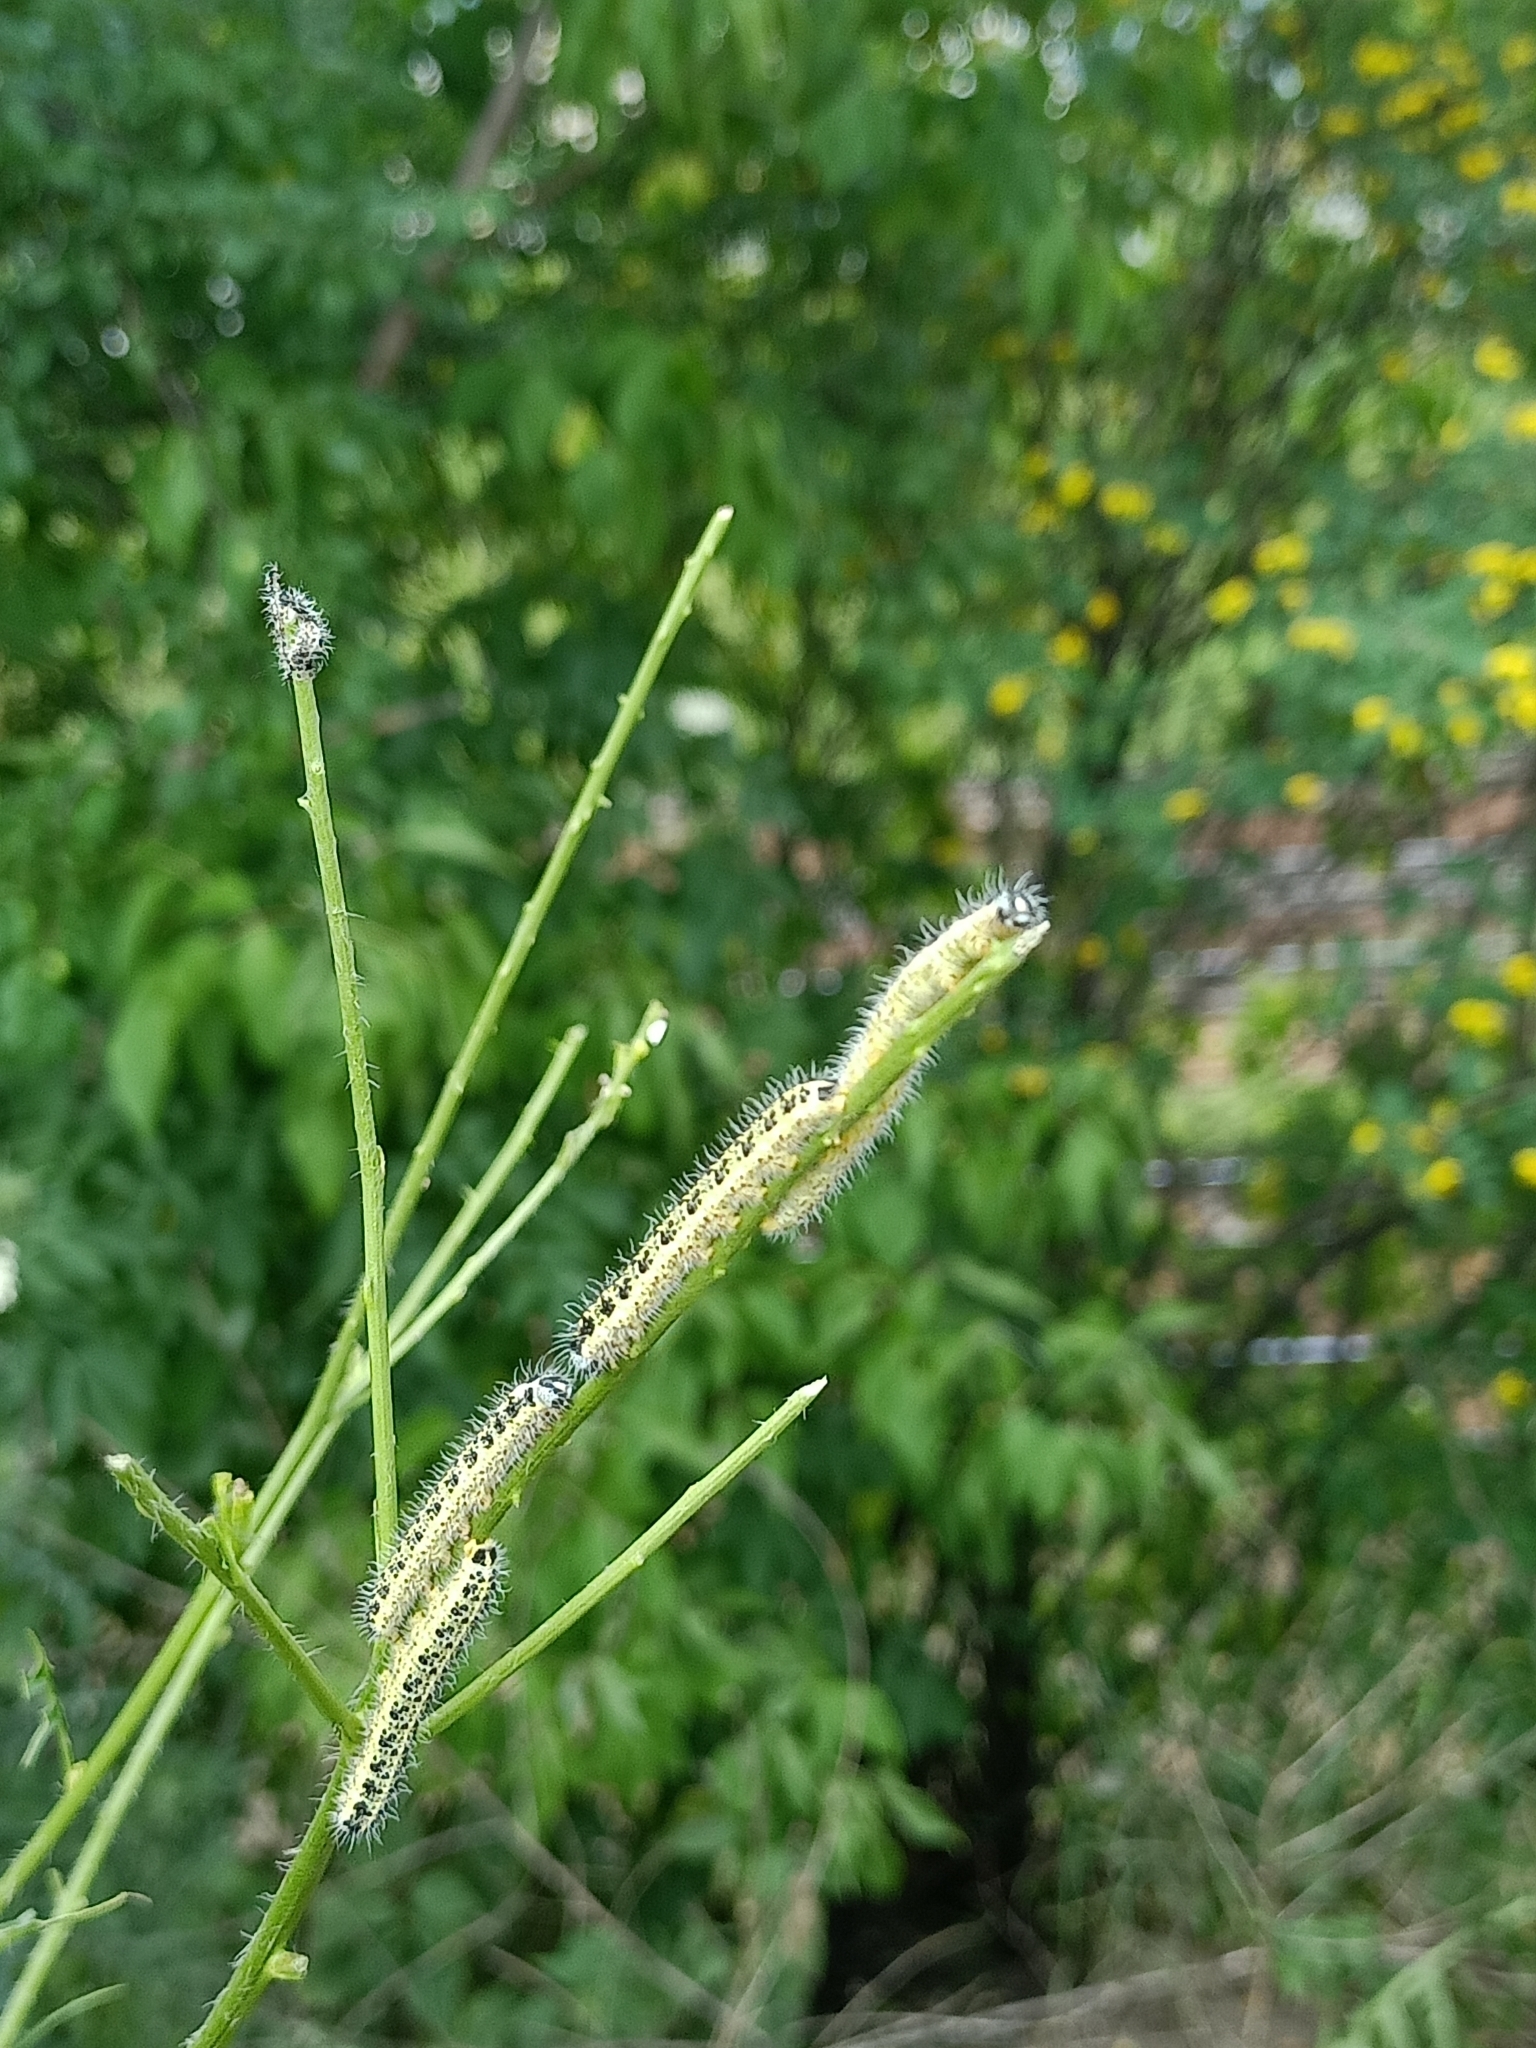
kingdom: Animalia
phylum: Arthropoda
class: Insecta
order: Lepidoptera
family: Pieridae
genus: Pieris
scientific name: Pieris brassicae
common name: Large white
